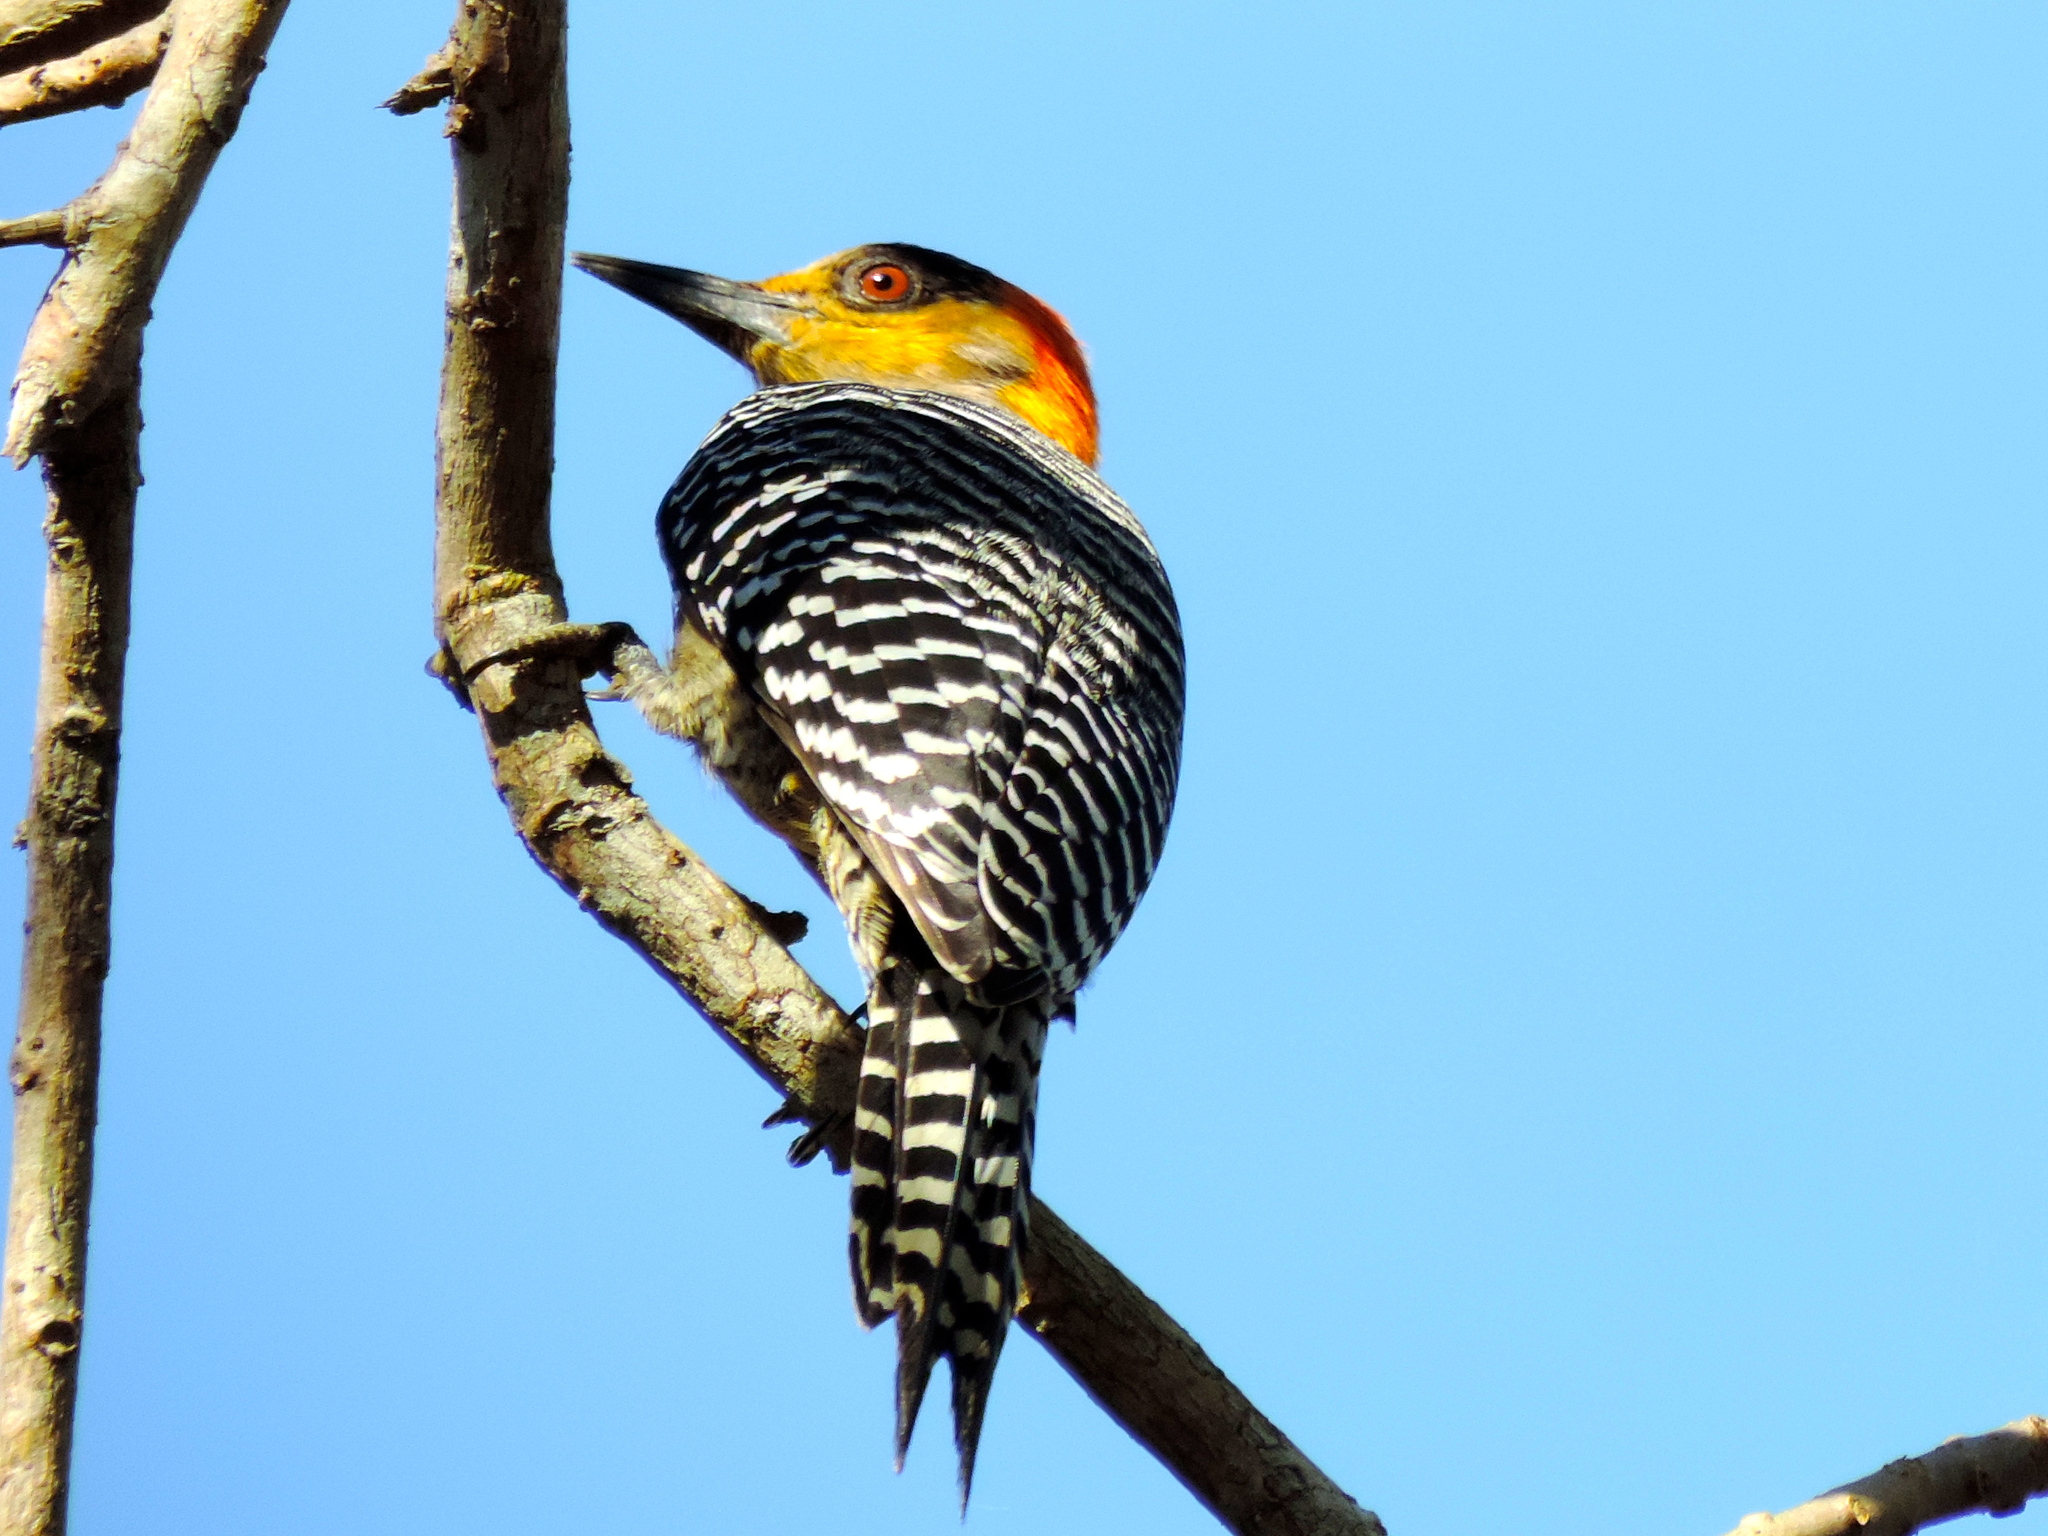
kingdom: Animalia
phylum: Chordata
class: Aves
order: Piciformes
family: Picidae
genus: Melanerpes
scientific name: Melanerpes chrysogenys
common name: Golden-cheeked woodpecker
